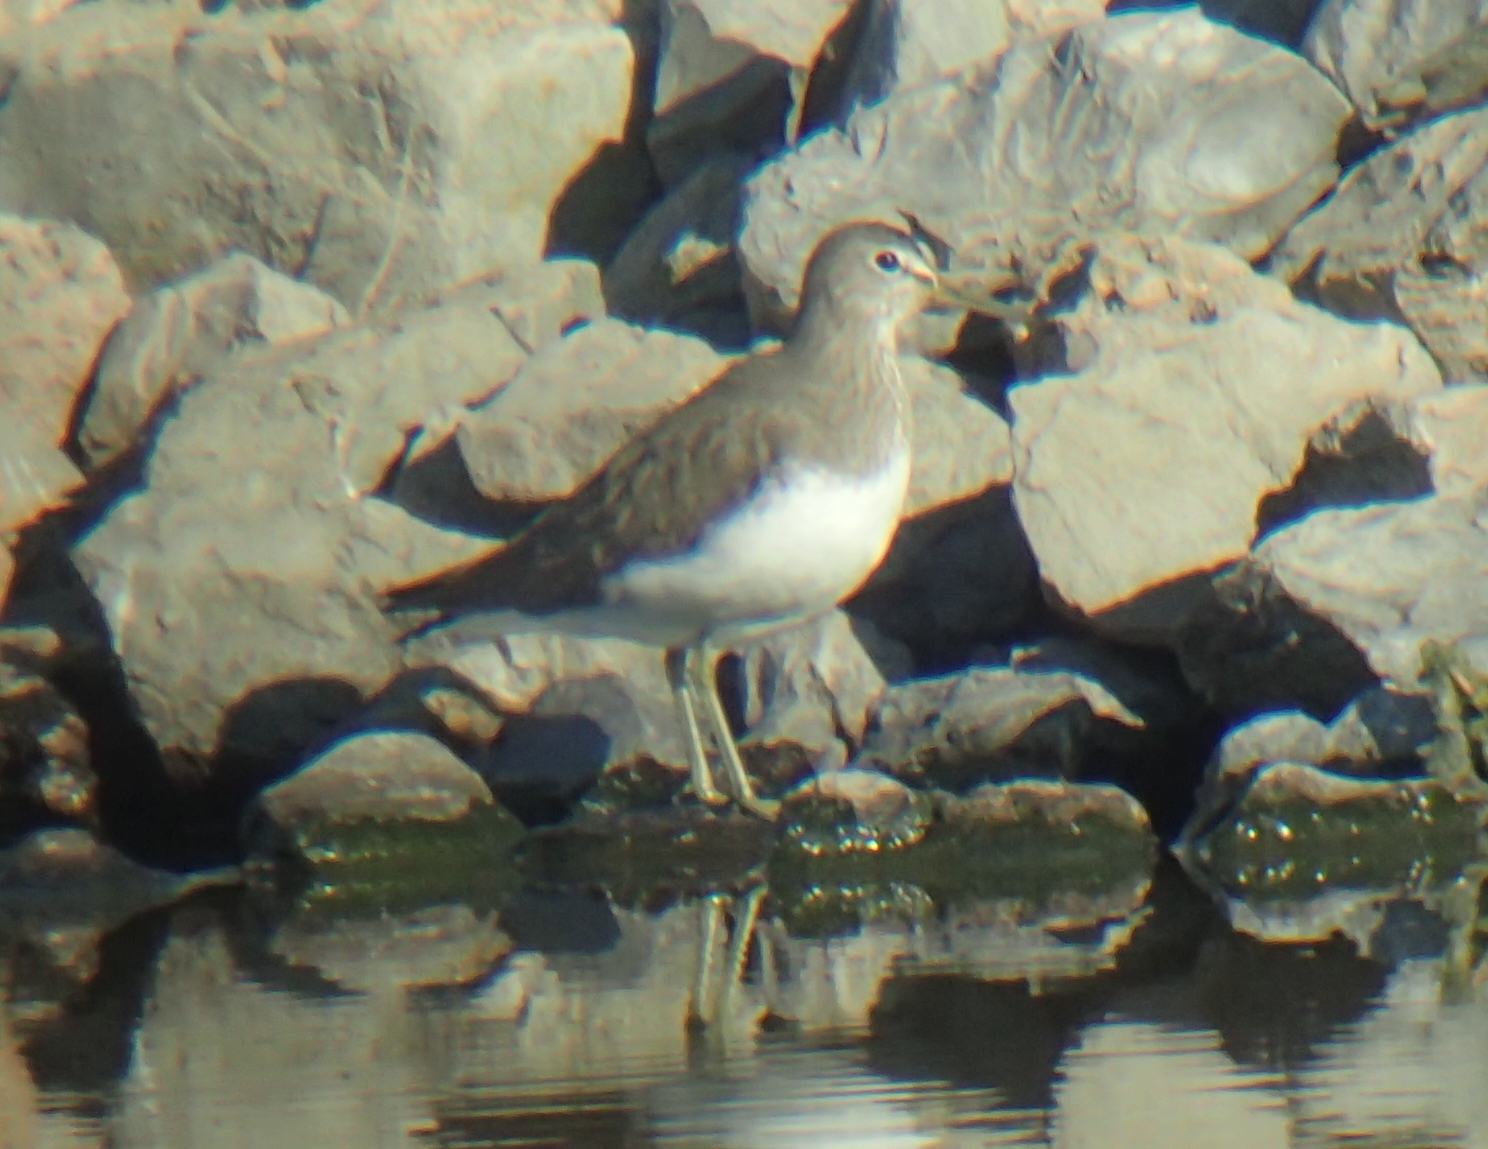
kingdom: Animalia
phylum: Chordata
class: Aves
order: Charadriiformes
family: Scolopacidae
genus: Tringa
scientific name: Tringa ochropus
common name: Green sandpiper
